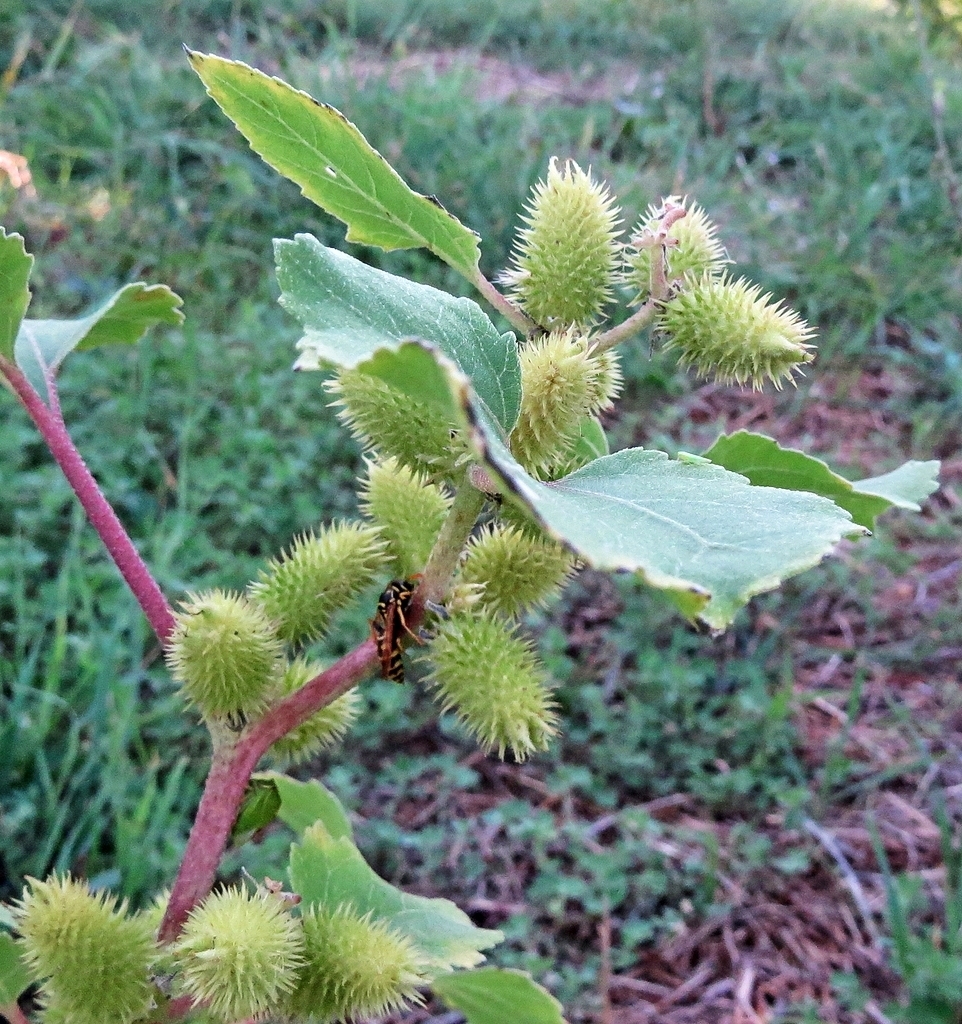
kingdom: Plantae
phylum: Tracheophyta
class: Magnoliopsida
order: Asterales
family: Asteraceae
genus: Xanthium
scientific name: Xanthium orientale
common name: Californian burr
